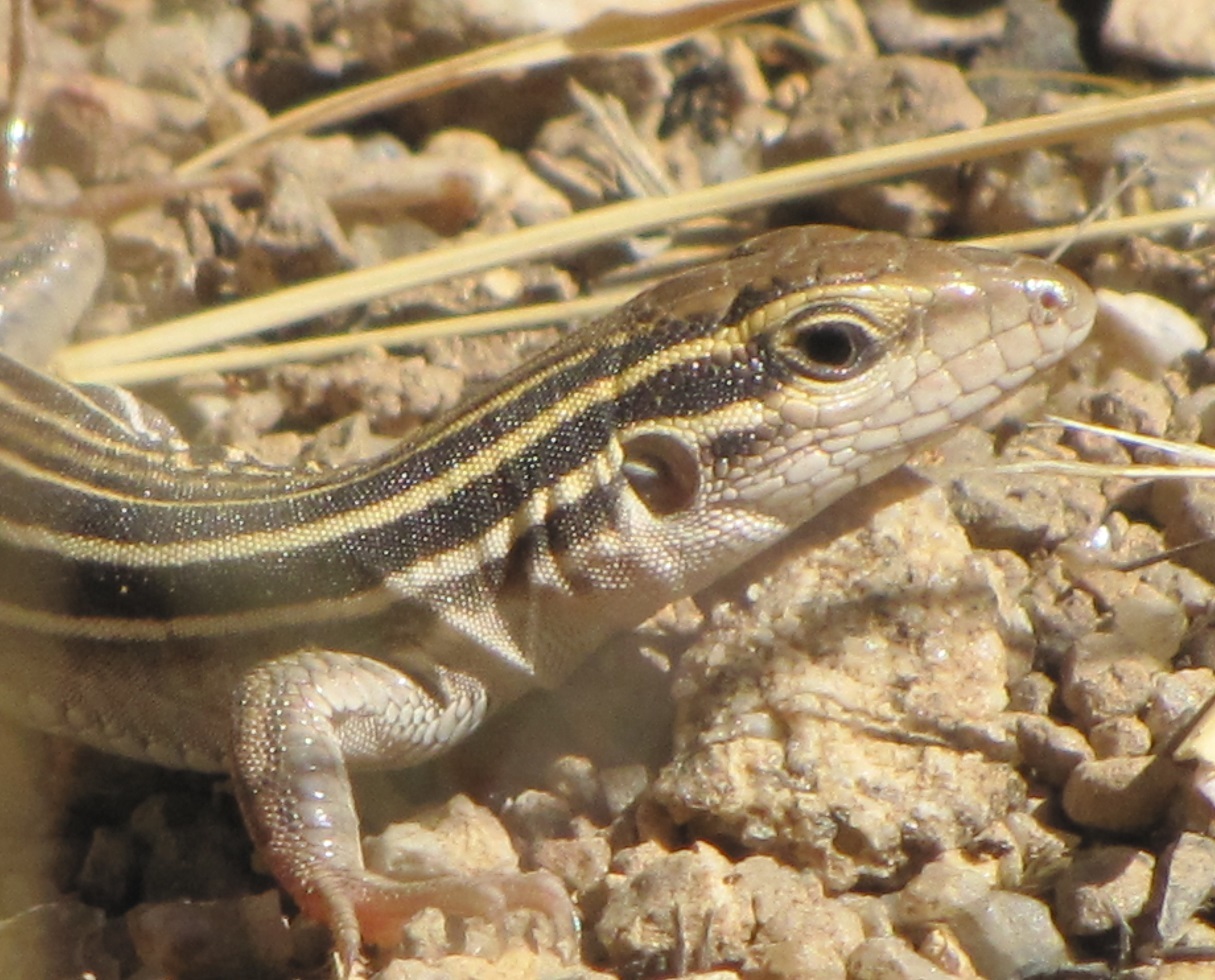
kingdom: Animalia
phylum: Chordata
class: Squamata
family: Teiidae
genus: Aspidoscelis
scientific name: Aspidoscelis uniparens
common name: Desert grassland whiptail
